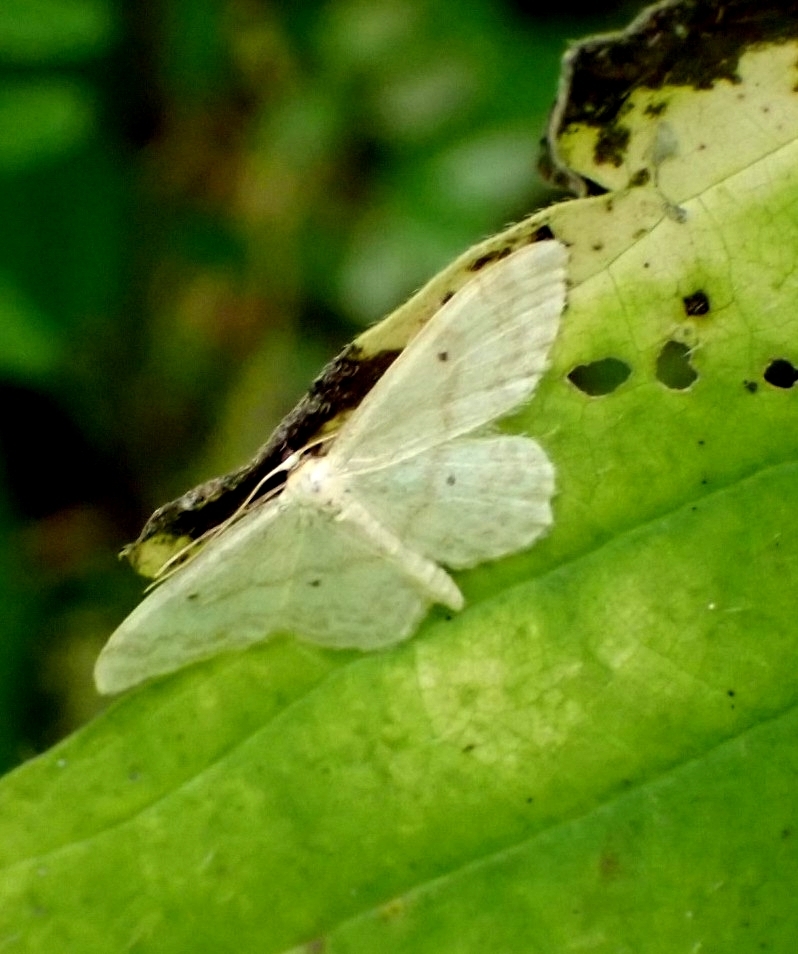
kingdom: Animalia
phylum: Arthropoda
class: Insecta
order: Lepidoptera
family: Geometridae
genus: Idaea
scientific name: Idaea biselata
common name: Small fan-footed wave
